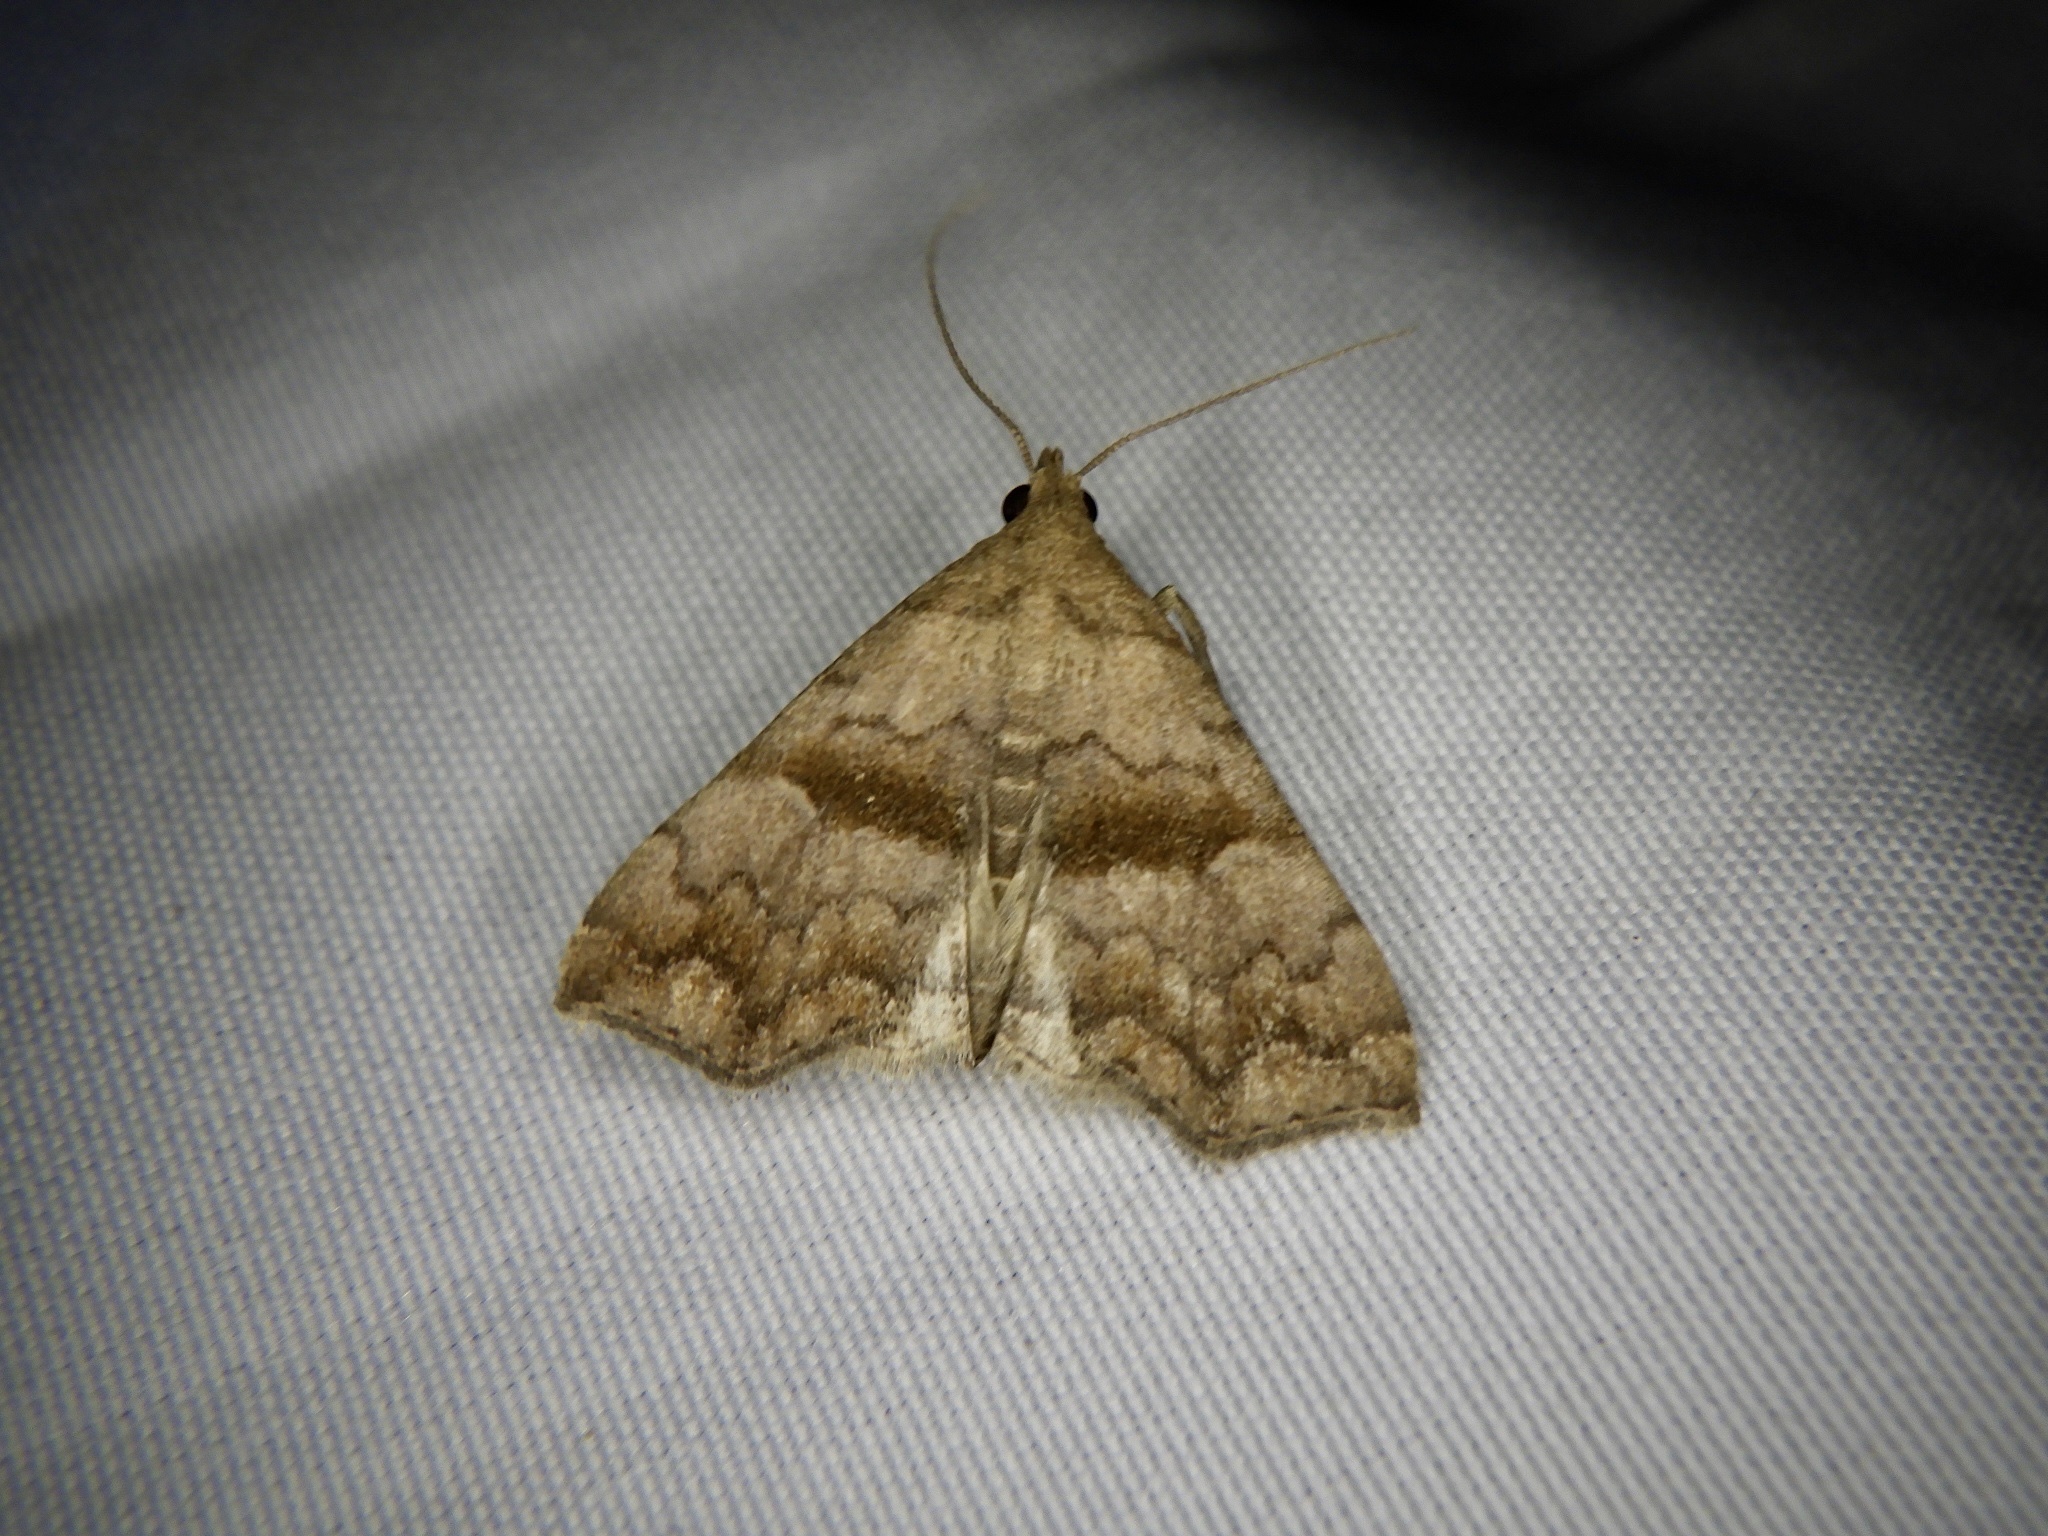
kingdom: Animalia
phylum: Arthropoda
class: Insecta
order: Lepidoptera
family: Erebidae
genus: Polypogon
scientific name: Polypogon Hipoepa fractalis
